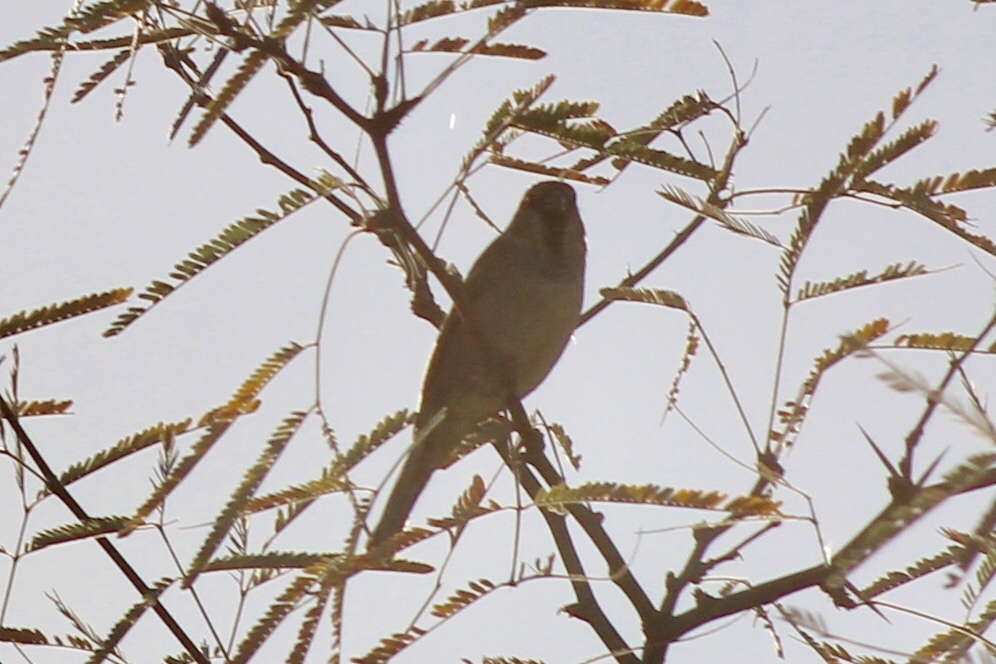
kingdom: Animalia
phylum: Chordata
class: Aves
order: Passeriformes
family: Passeridae
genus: Passer
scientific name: Passer domesticus
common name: House sparrow
